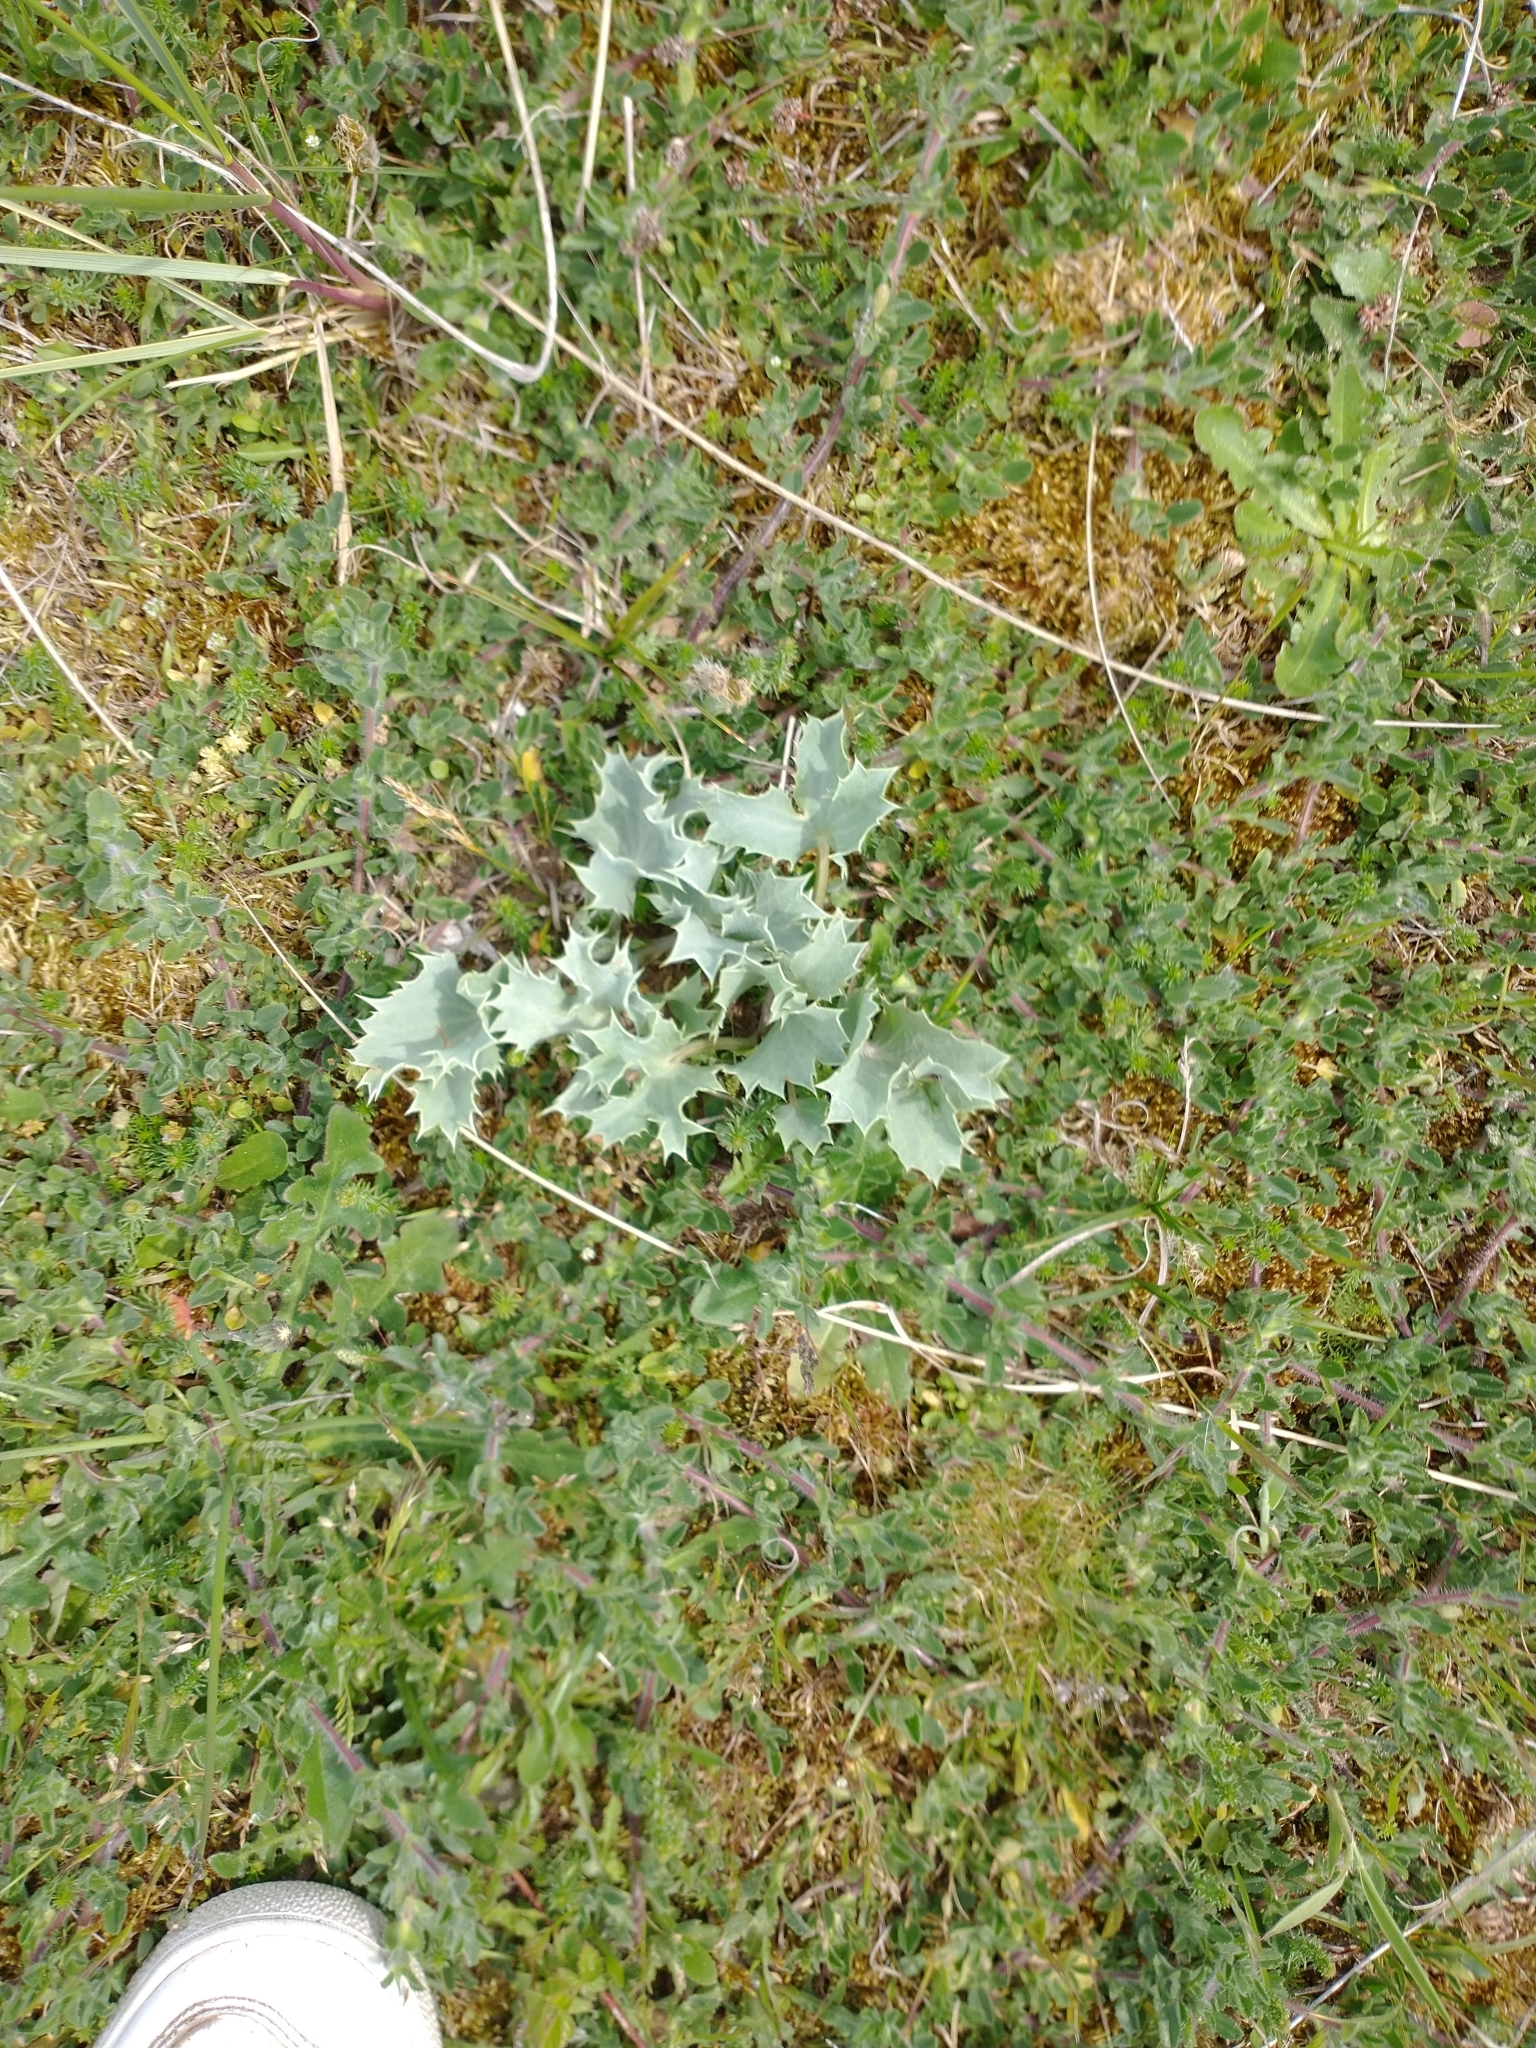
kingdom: Plantae
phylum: Tracheophyta
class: Magnoliopsida
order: Apiales
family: Apiaceae
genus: Eryngium
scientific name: Eryngium maritimum
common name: Sea-holly
